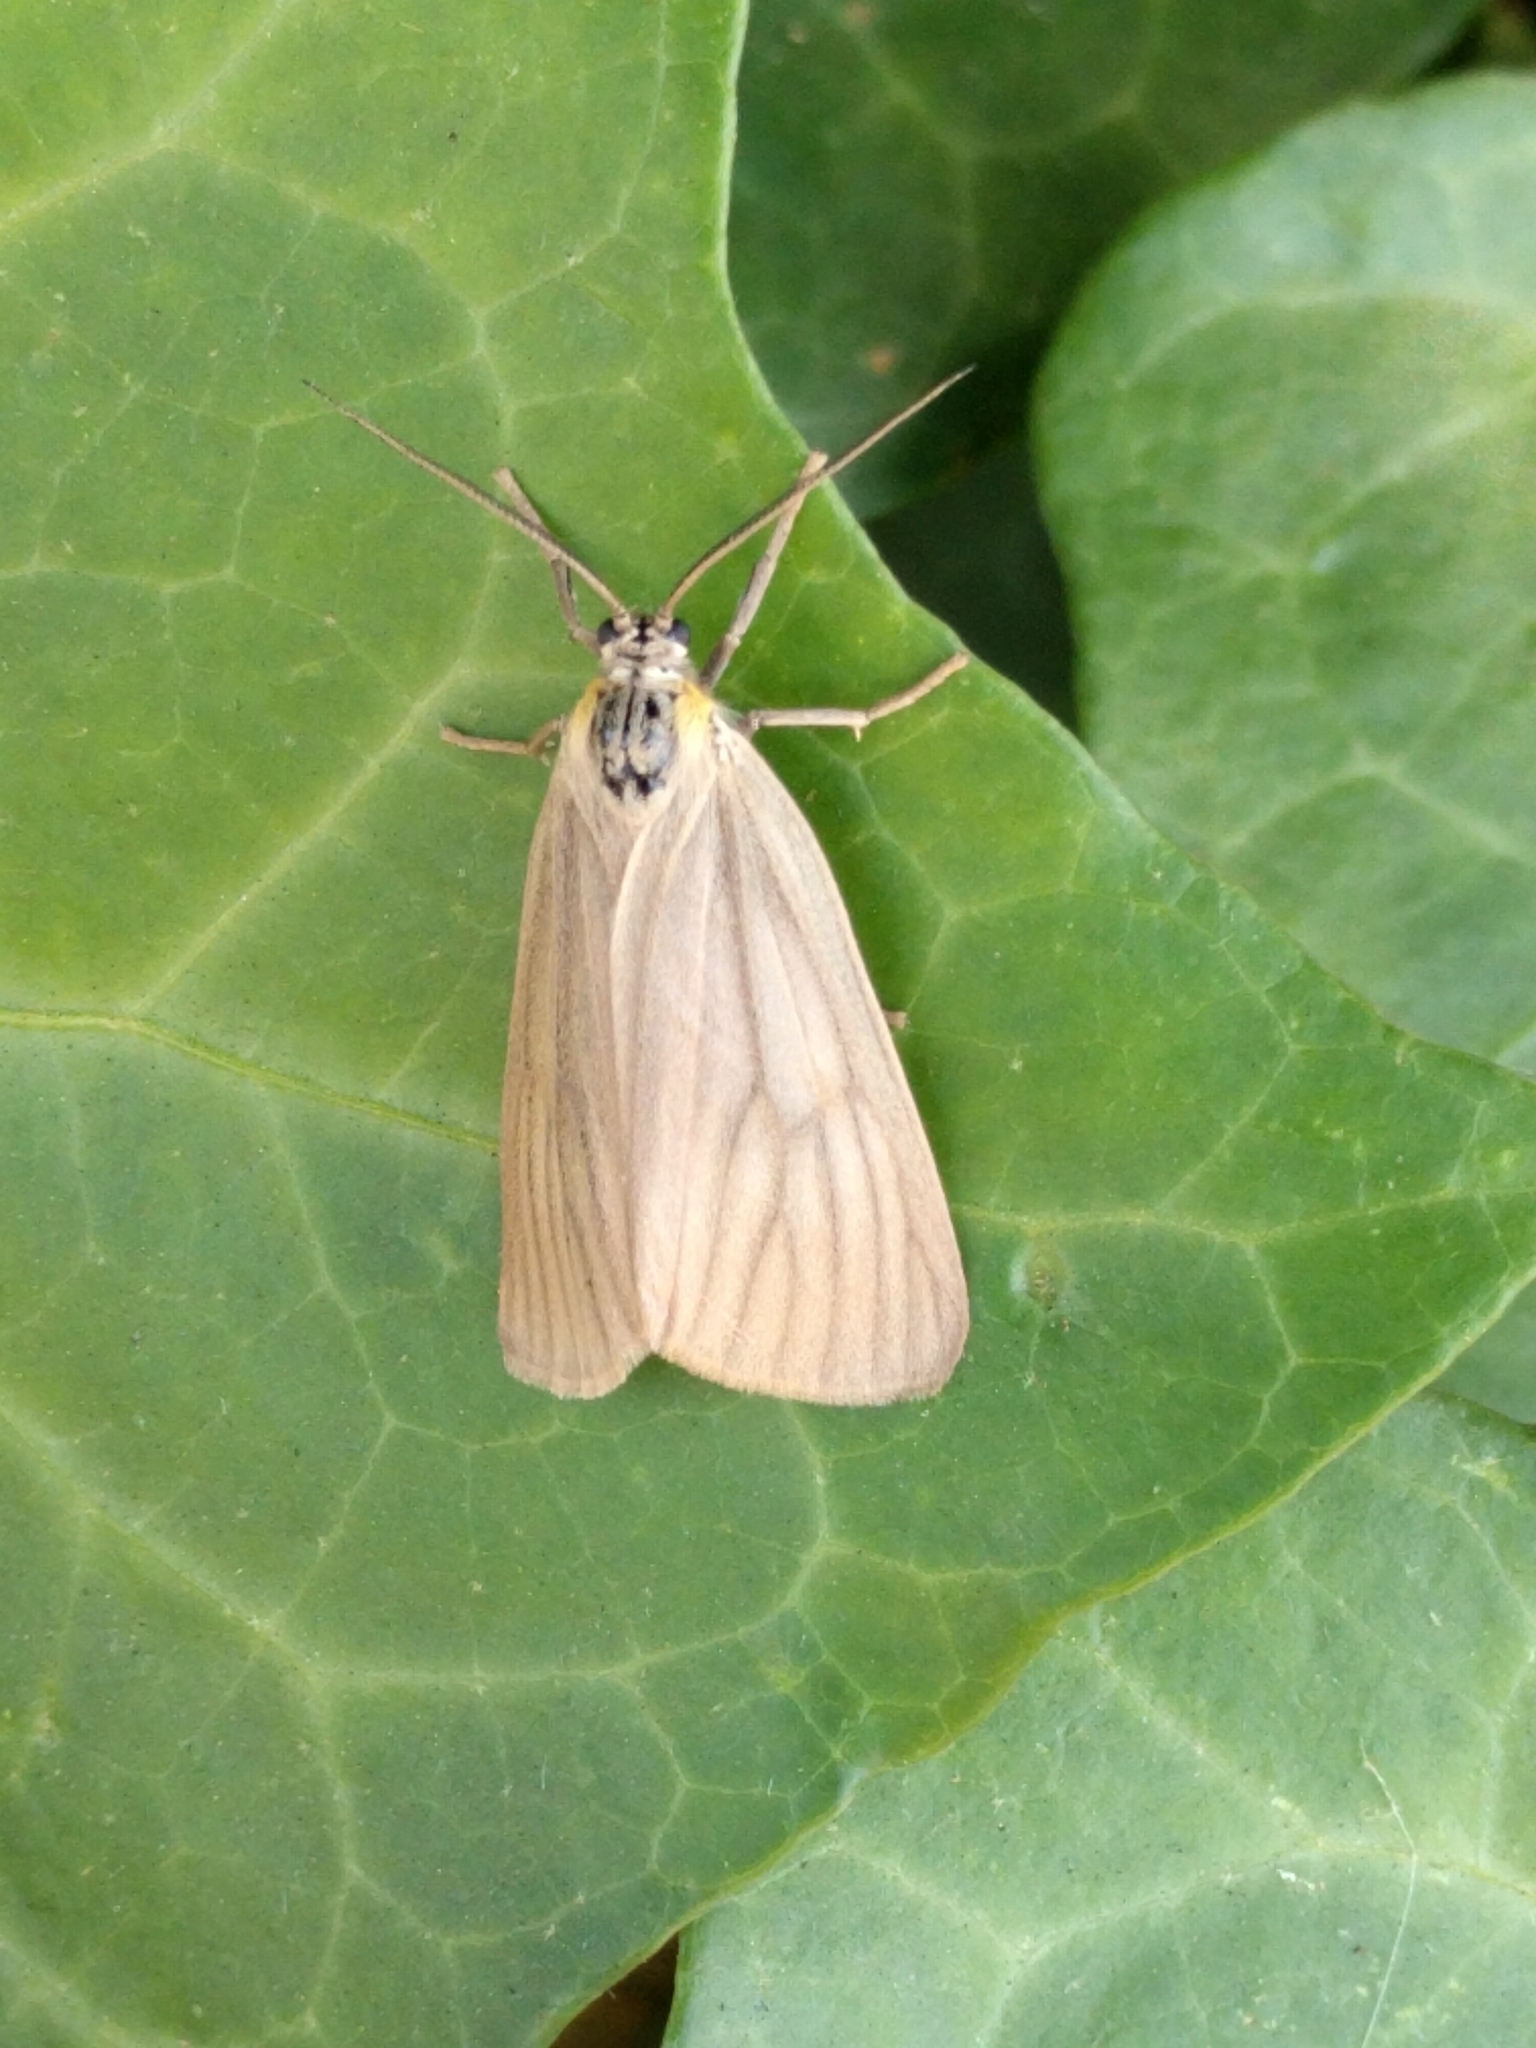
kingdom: Animalia
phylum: Arthropoda
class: Insecta
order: Lepidoptera
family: Notodontidae
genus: Phryganidia
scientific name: Phryganidia californica
